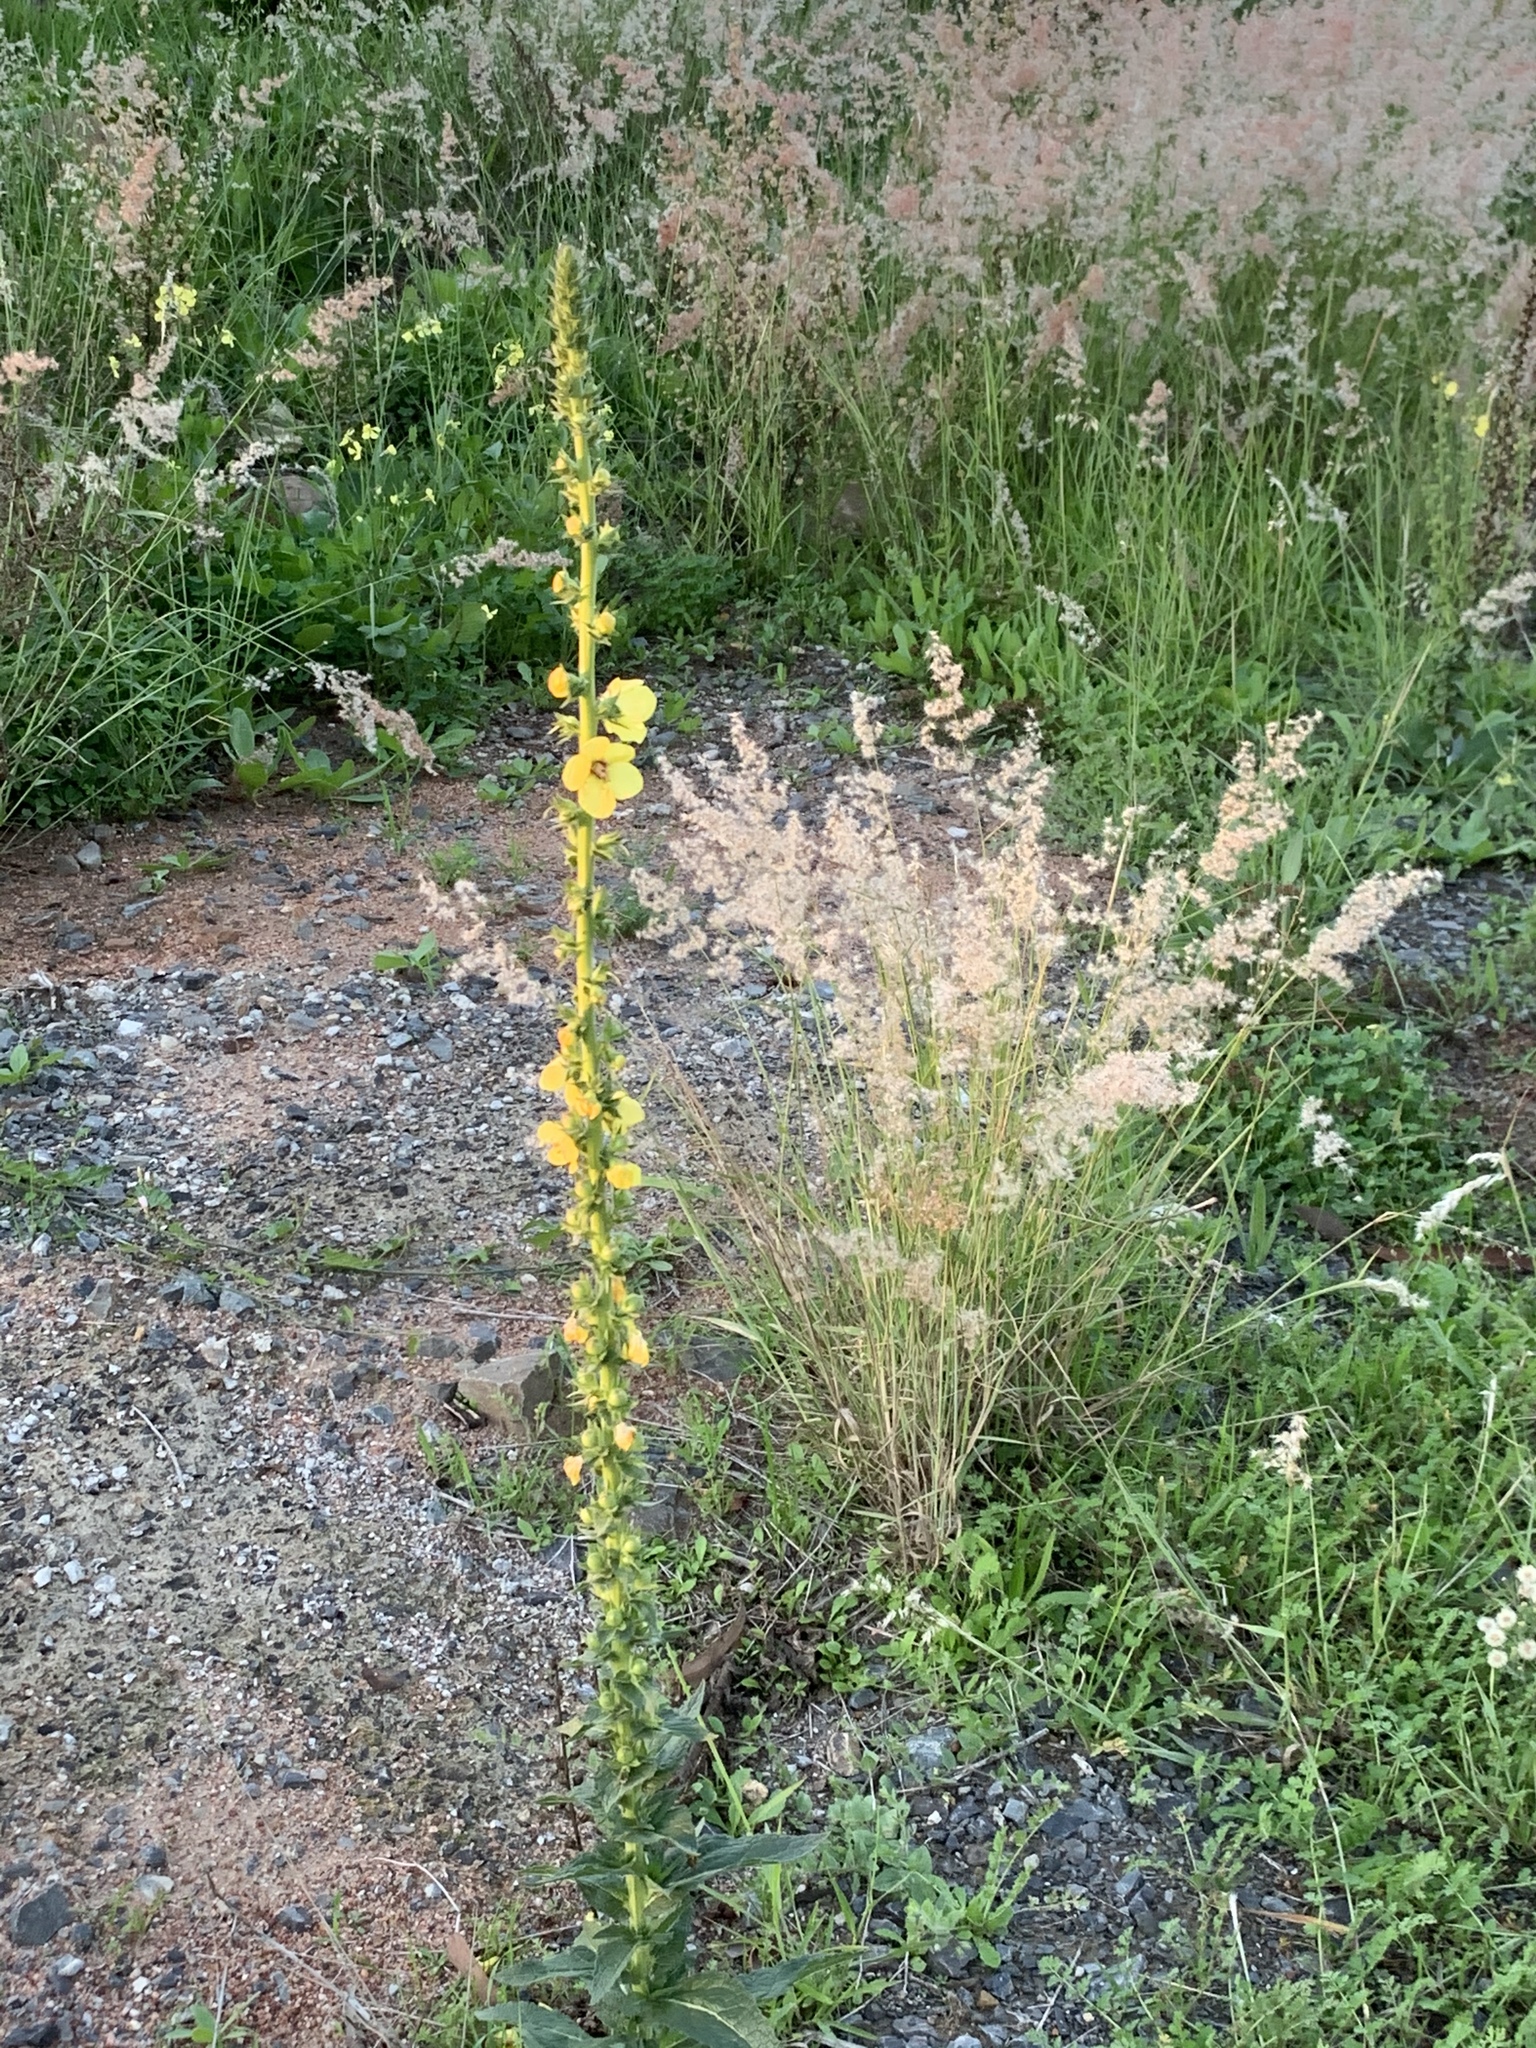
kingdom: Plantae
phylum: Tracheophyta
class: Magnoliopsida
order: Lamiales
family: Scrophulariaceae
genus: Verbascum
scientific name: Verbascum virgatum
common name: Twiggy mullein
